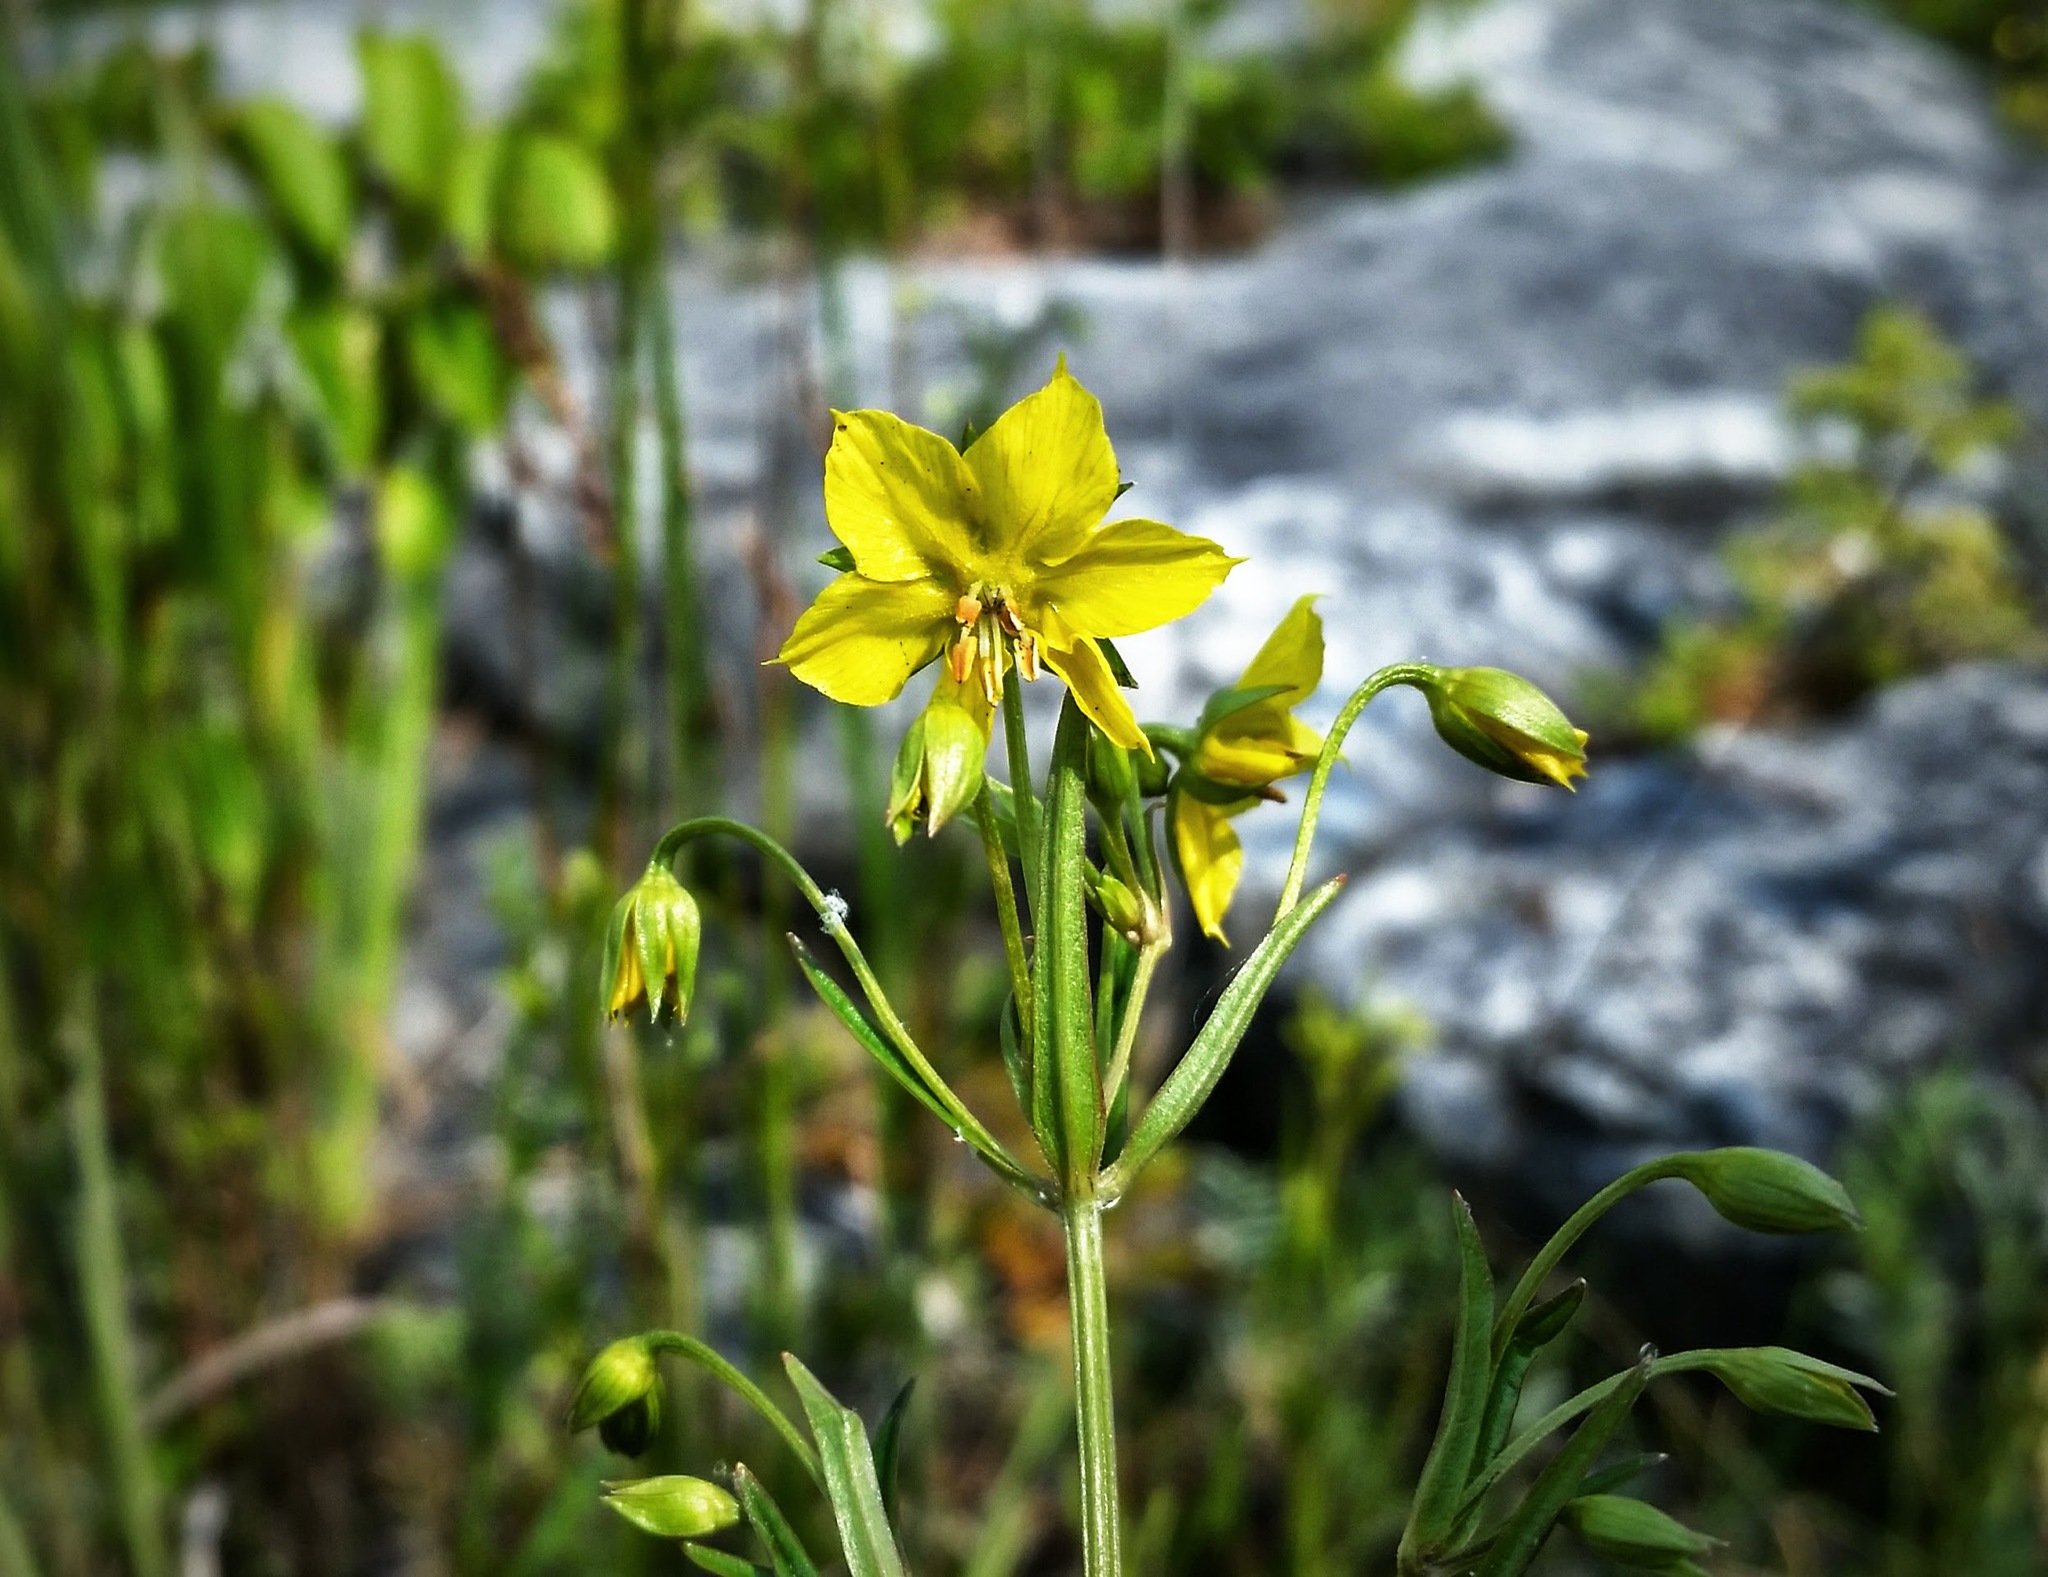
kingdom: Plantae
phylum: Tracheophyta
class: Magnoliopsida
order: Ericales
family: Primulaceae
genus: Lysimachia
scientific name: Lysimachia quadriflora
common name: Four-flowered loosestrife
